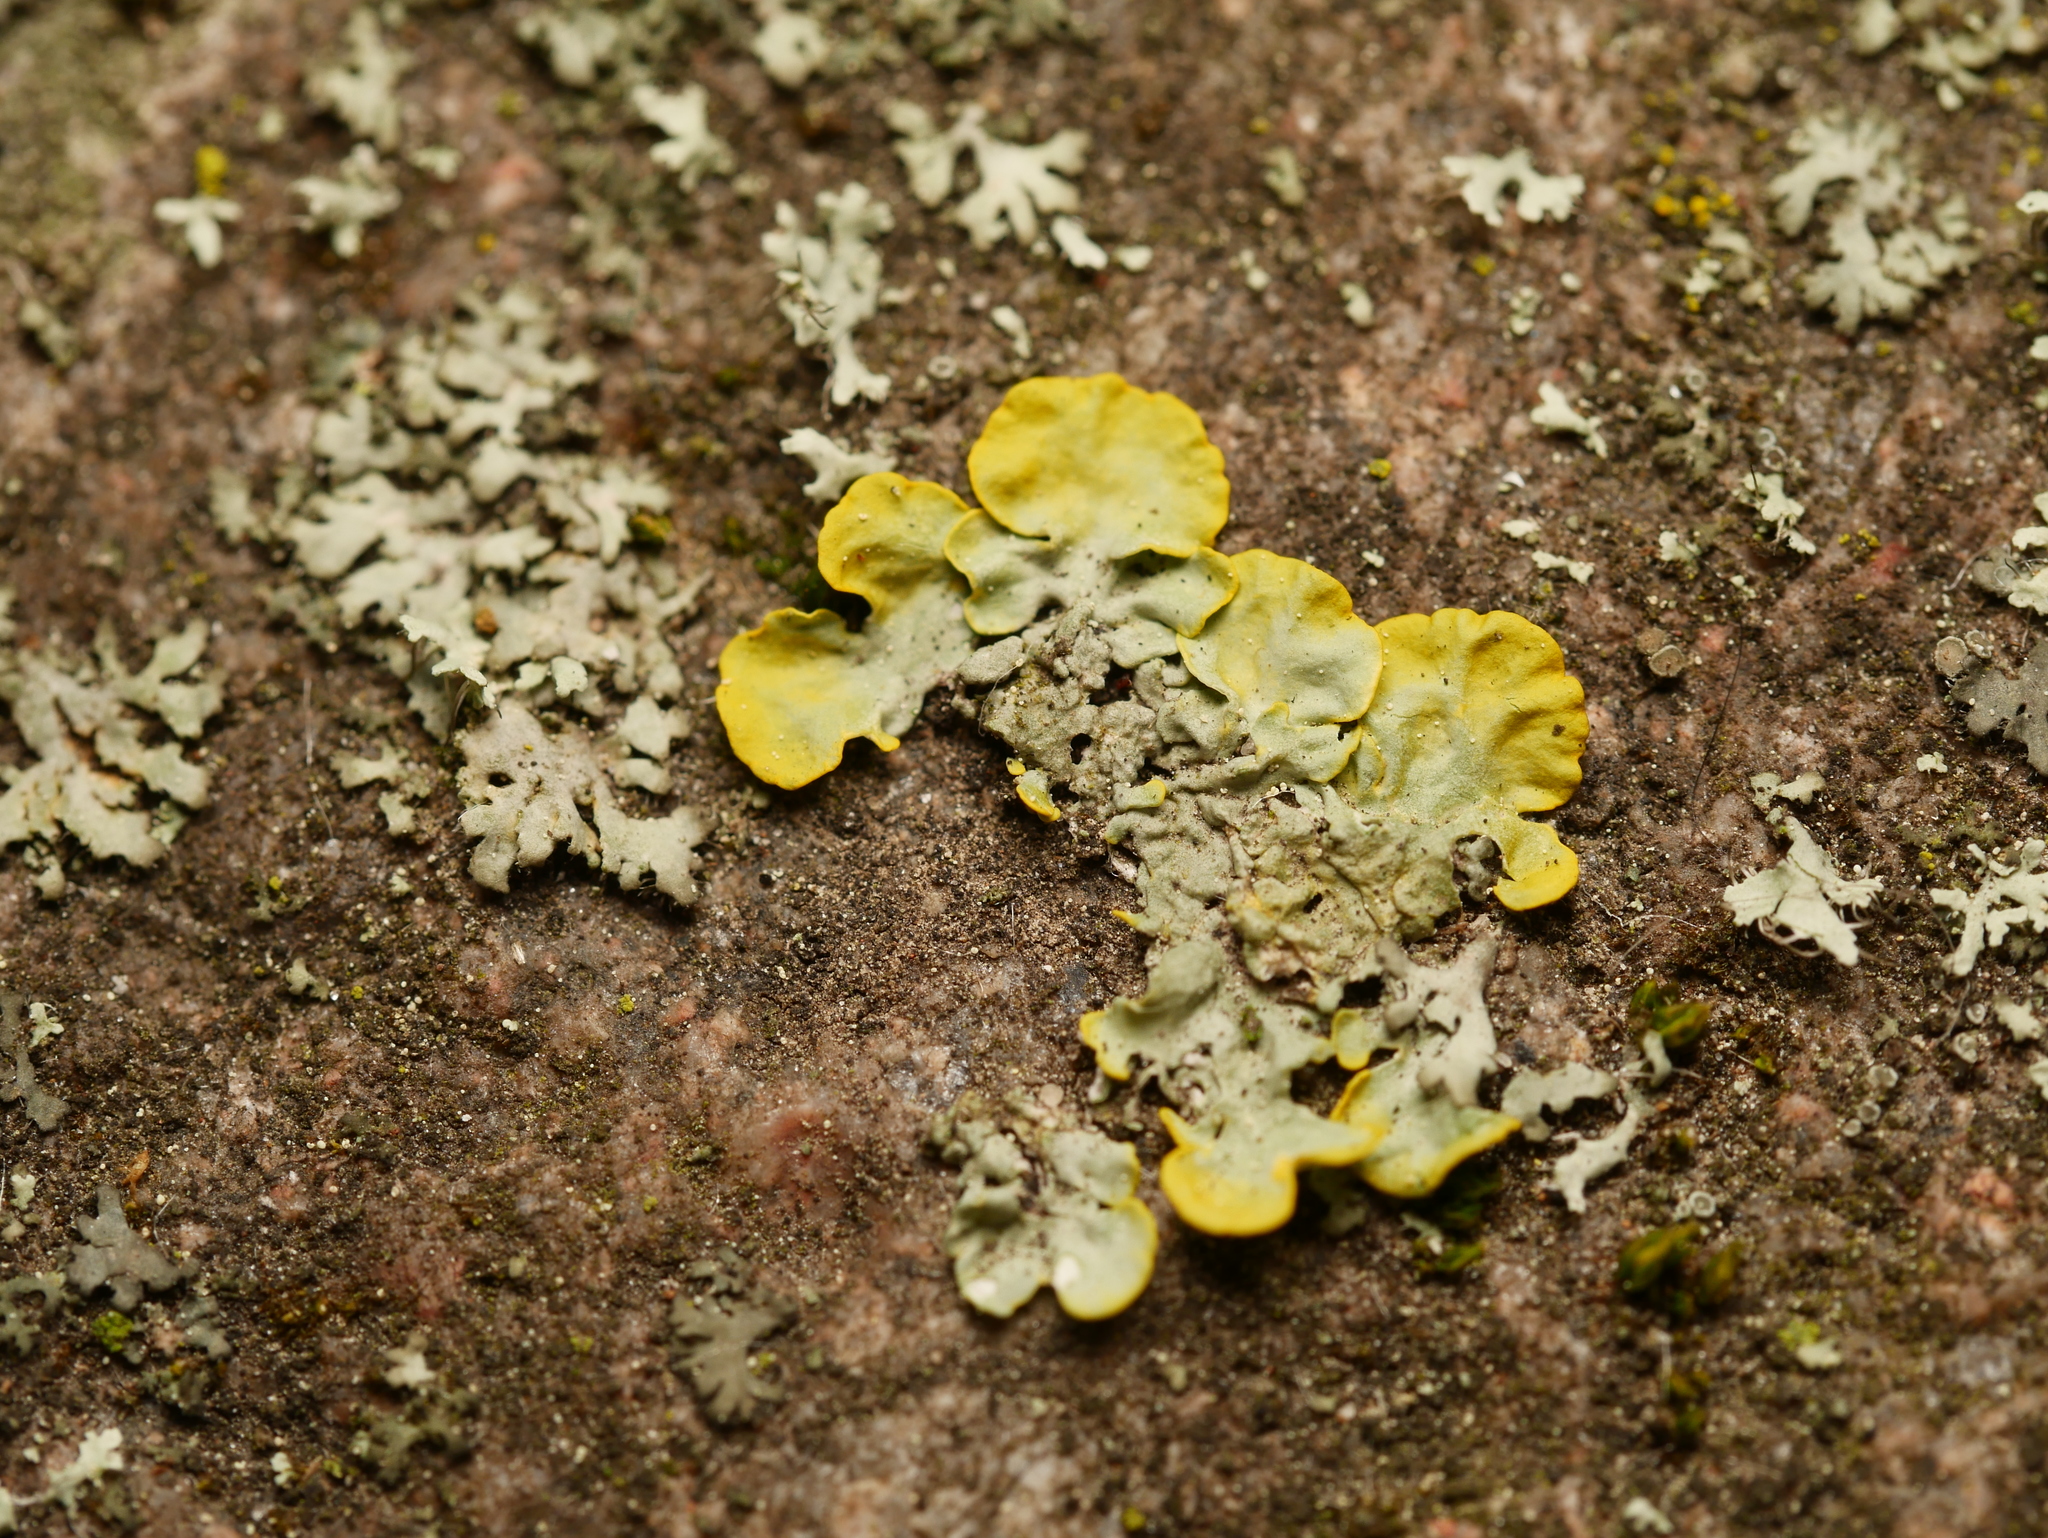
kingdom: Fungi
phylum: Ascomycota
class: Lecanoromycetes
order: Teloschistales
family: Teloschistaceae
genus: Xanthoria
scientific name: Xanthoria parietina
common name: Common orange lichen
